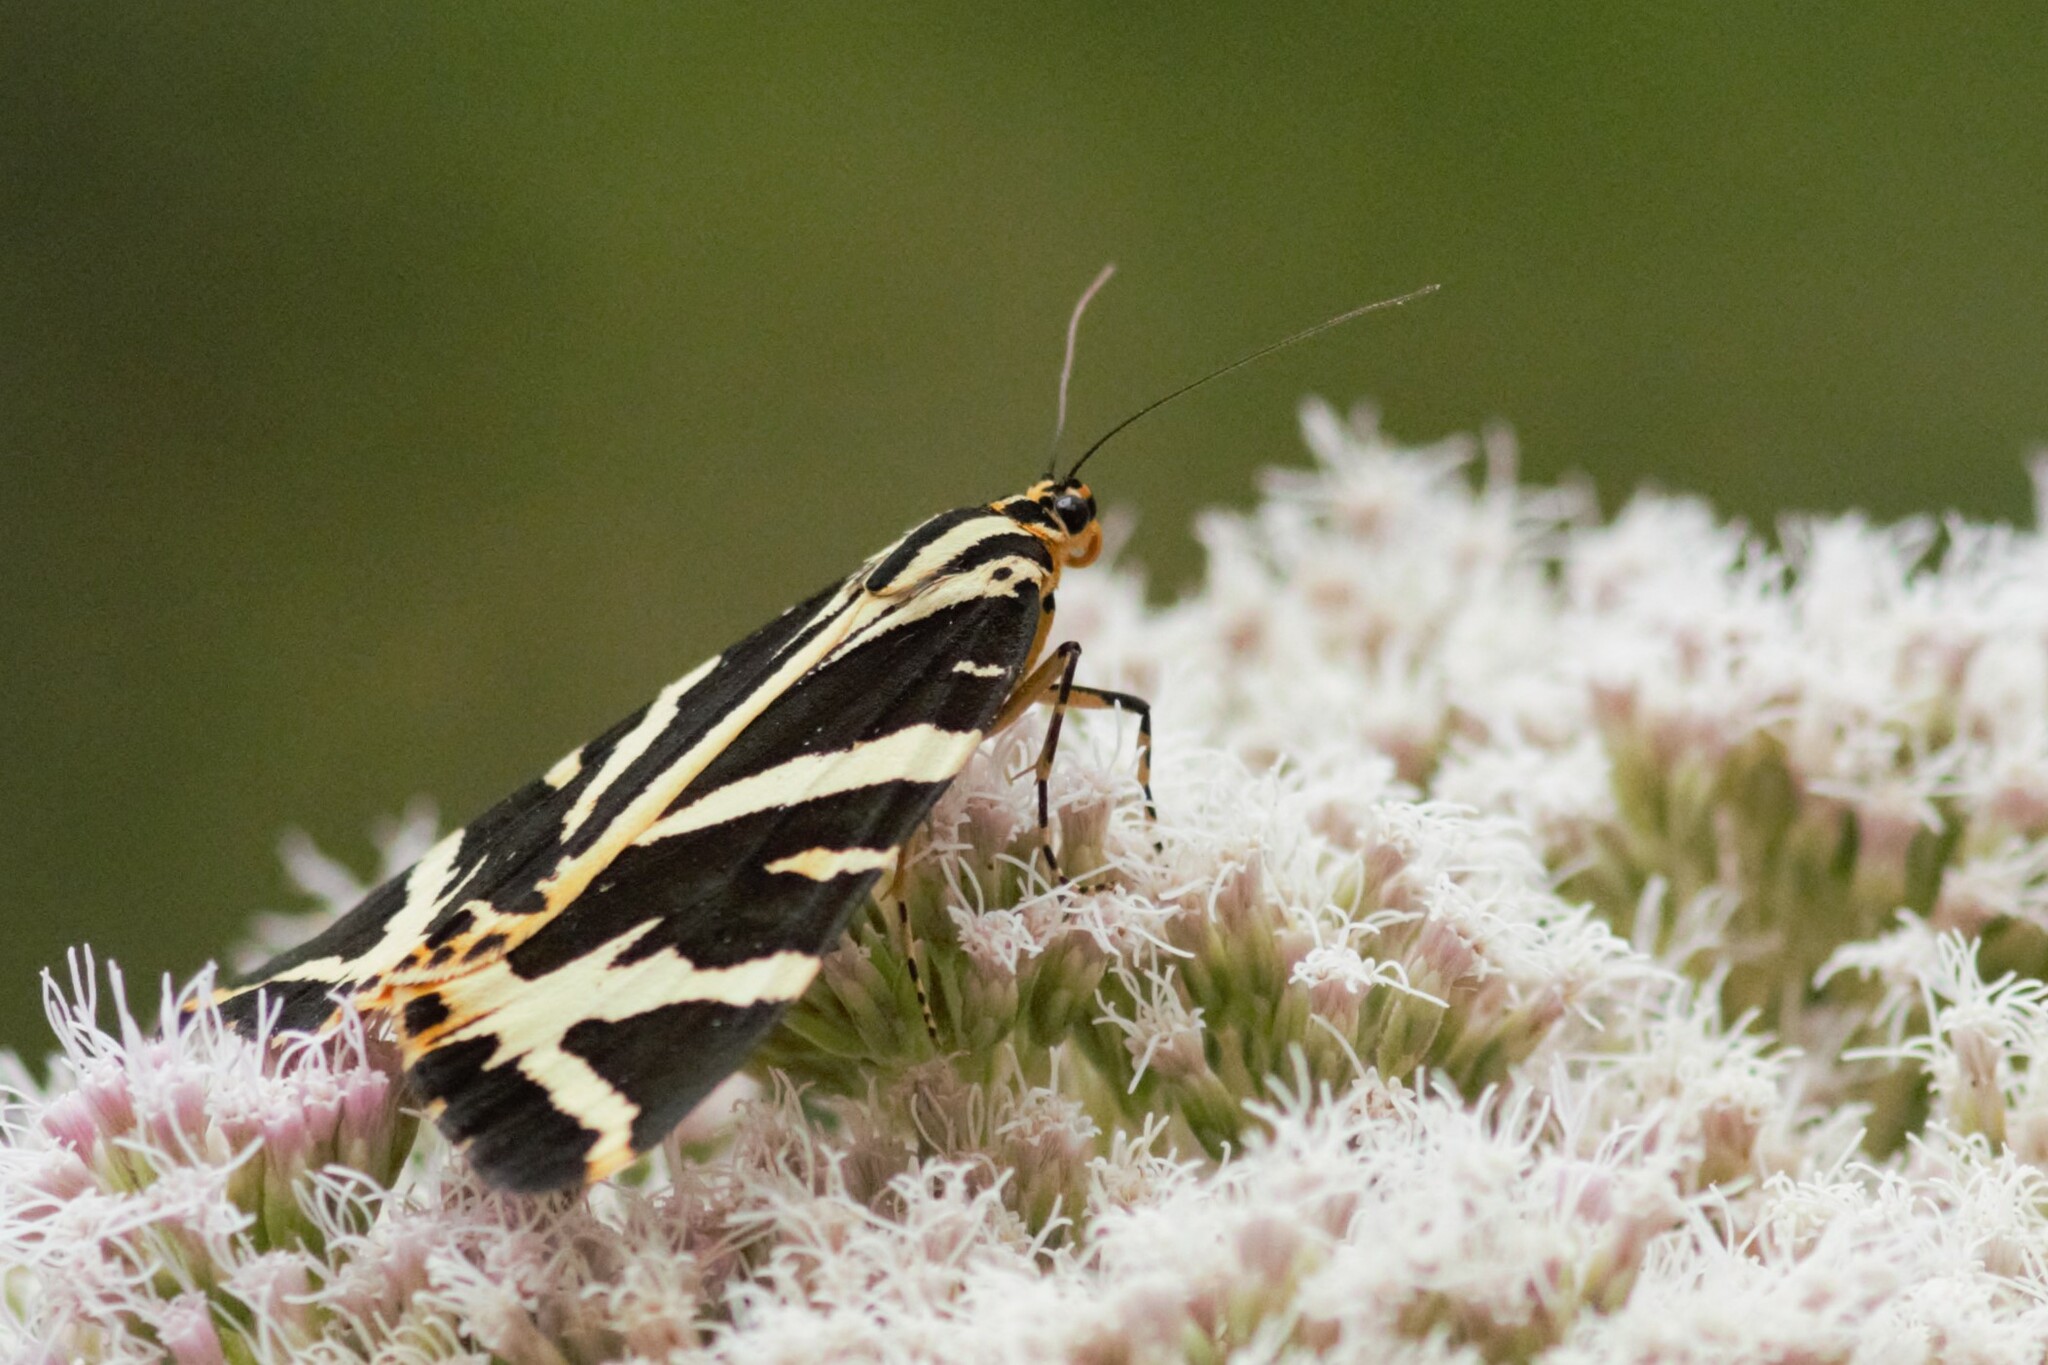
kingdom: Animalia
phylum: Arthropoda
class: Insecta
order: Lepidoptera
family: Erebidae
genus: Euplagia
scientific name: Euplagia quadripunctaria
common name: Jersey tiger
